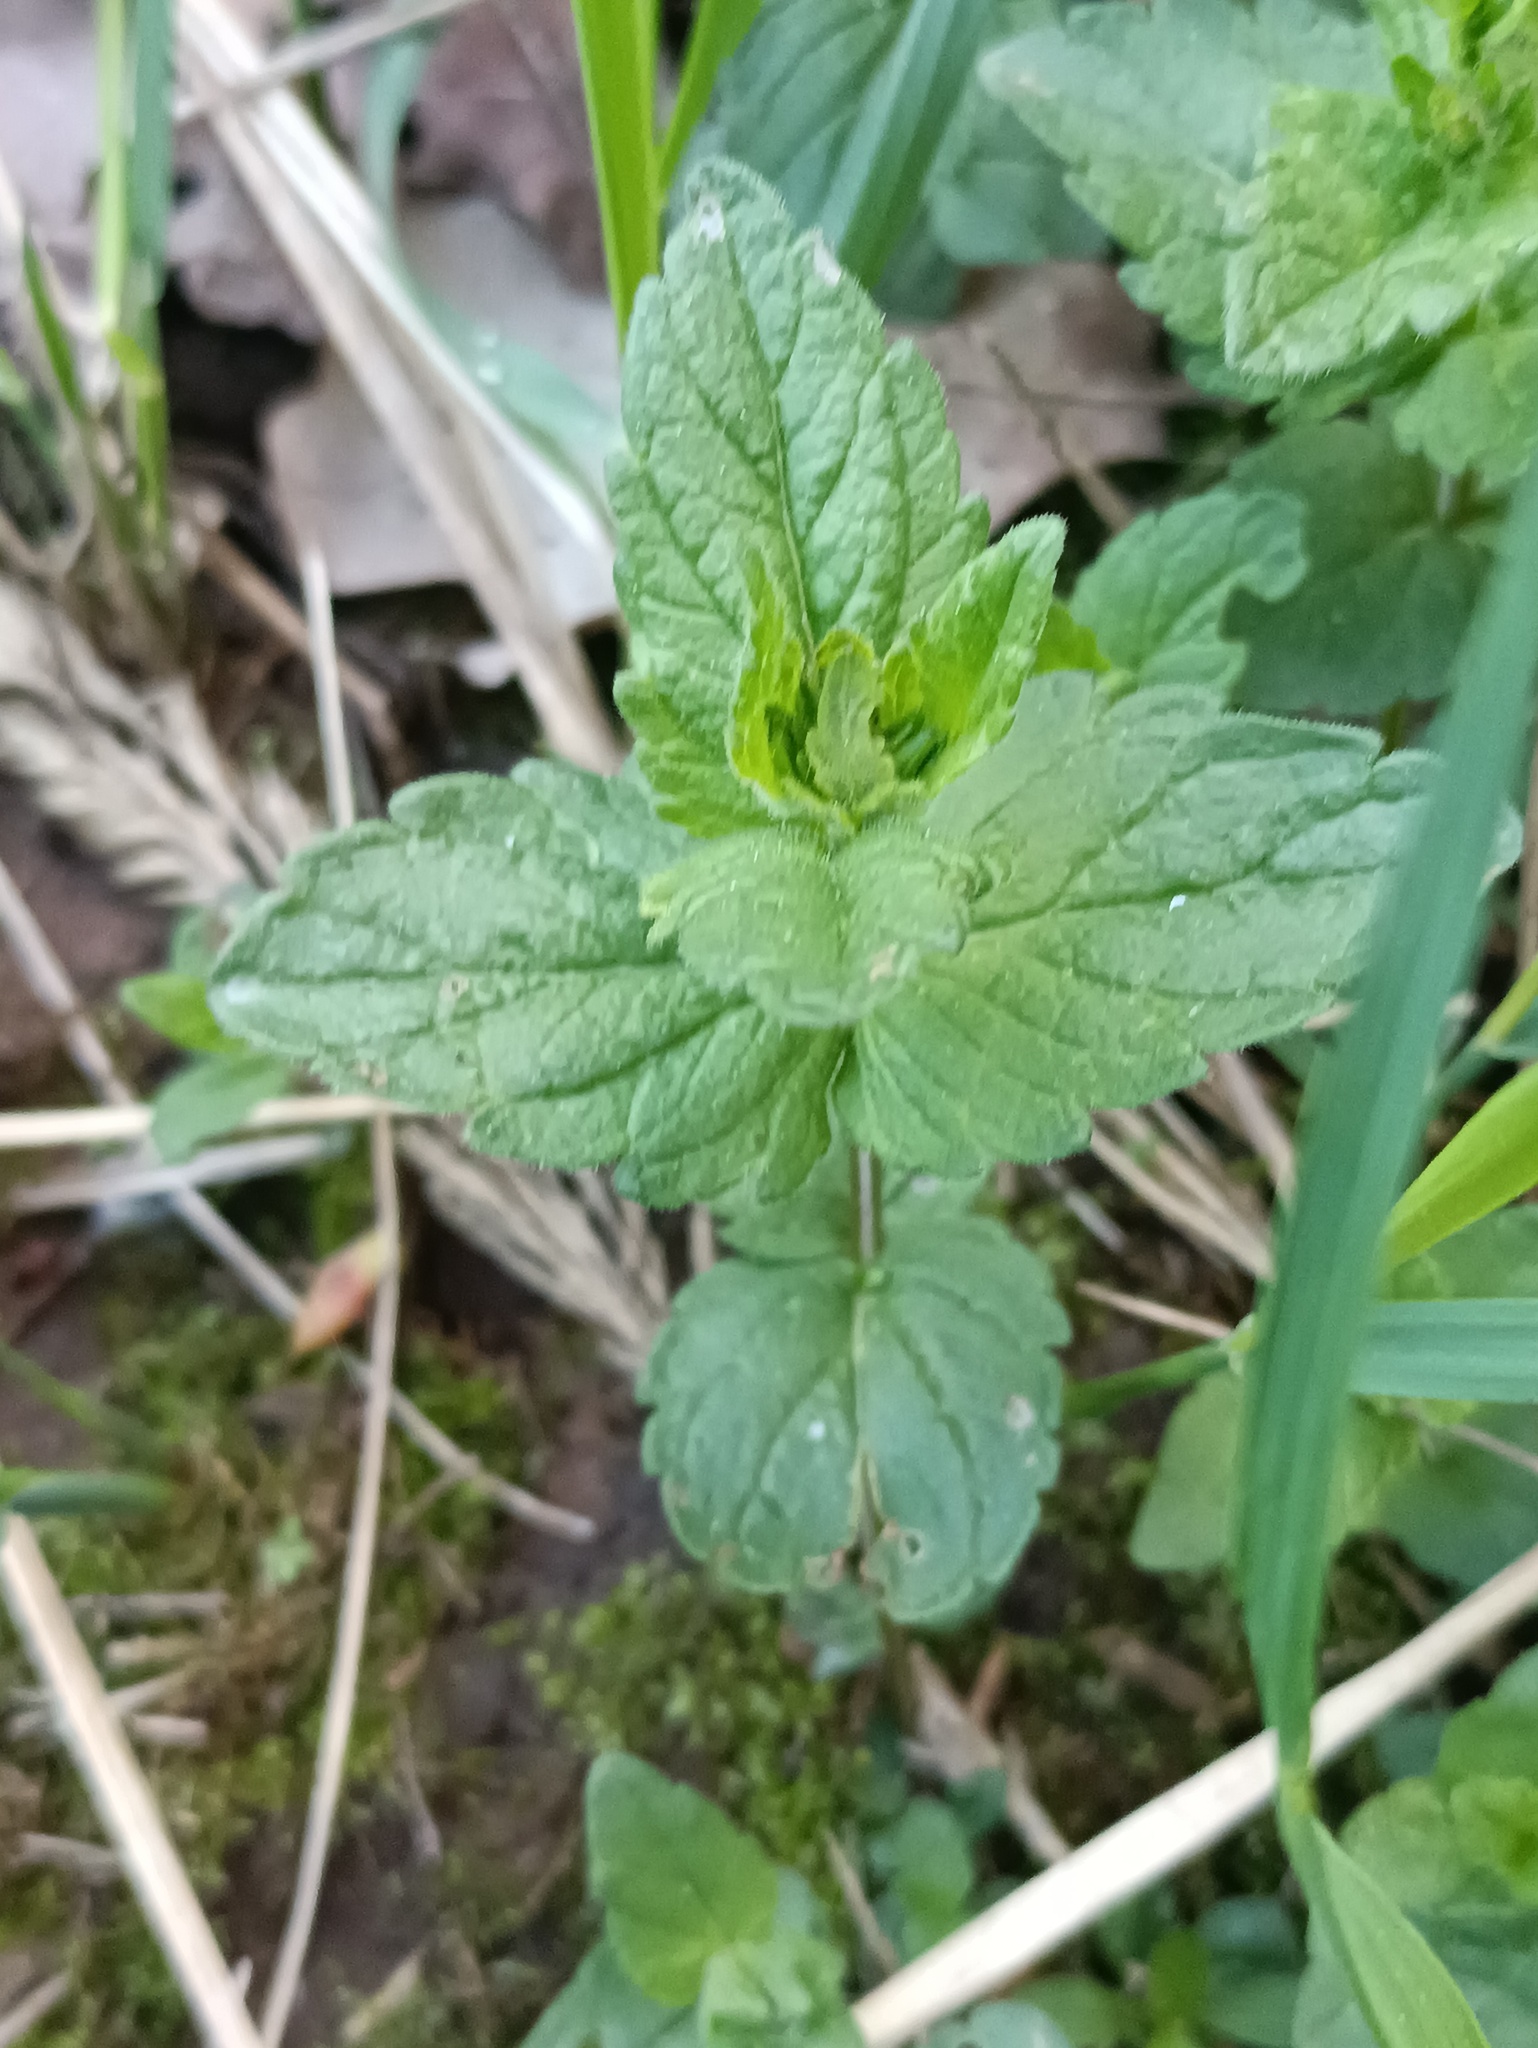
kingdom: Plantae
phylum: Tracheophyta
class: Magnoliopsida
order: Lamiales
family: Plantaginaceae
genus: Veronica
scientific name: Veronica chamaedrys
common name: Germander speedwell
